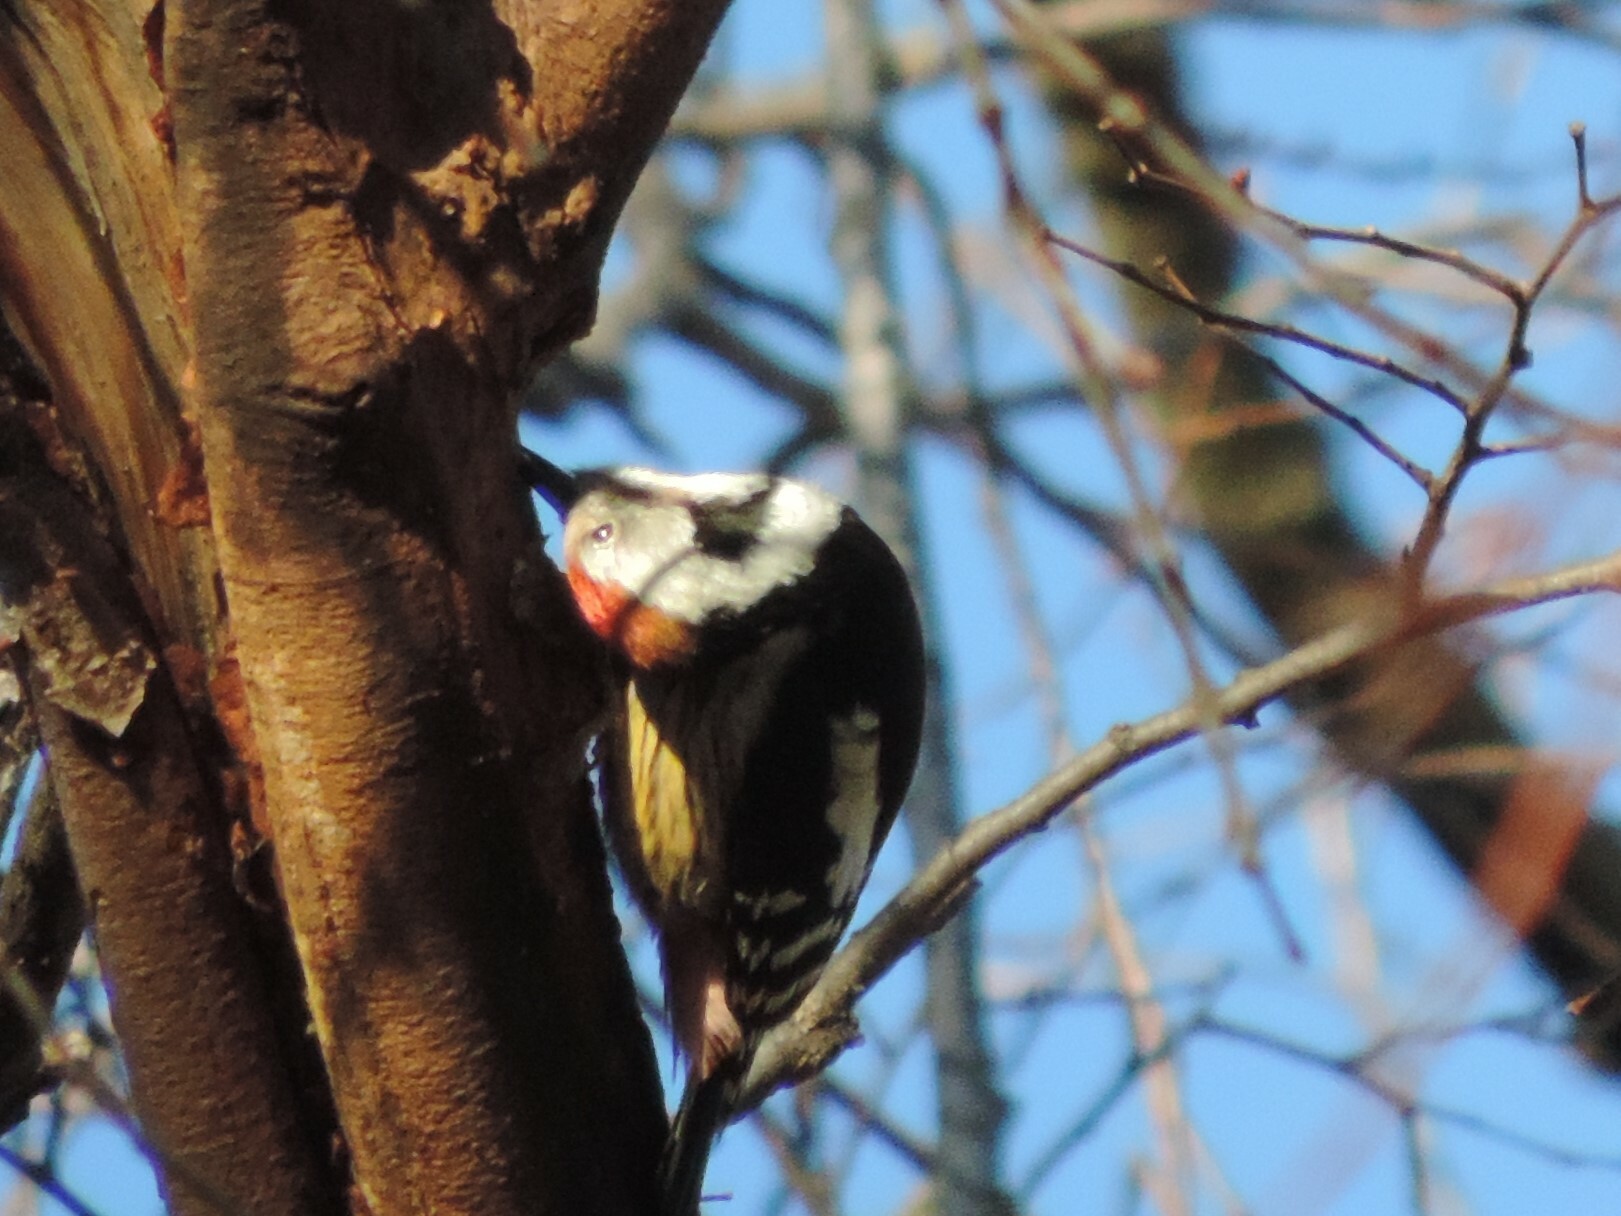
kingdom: Animalia
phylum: Chordata
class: Aves
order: Piciformes
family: Picidae
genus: Dendrocoptes
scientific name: Dendrocoptes medius
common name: Middle spotted woodpecker
